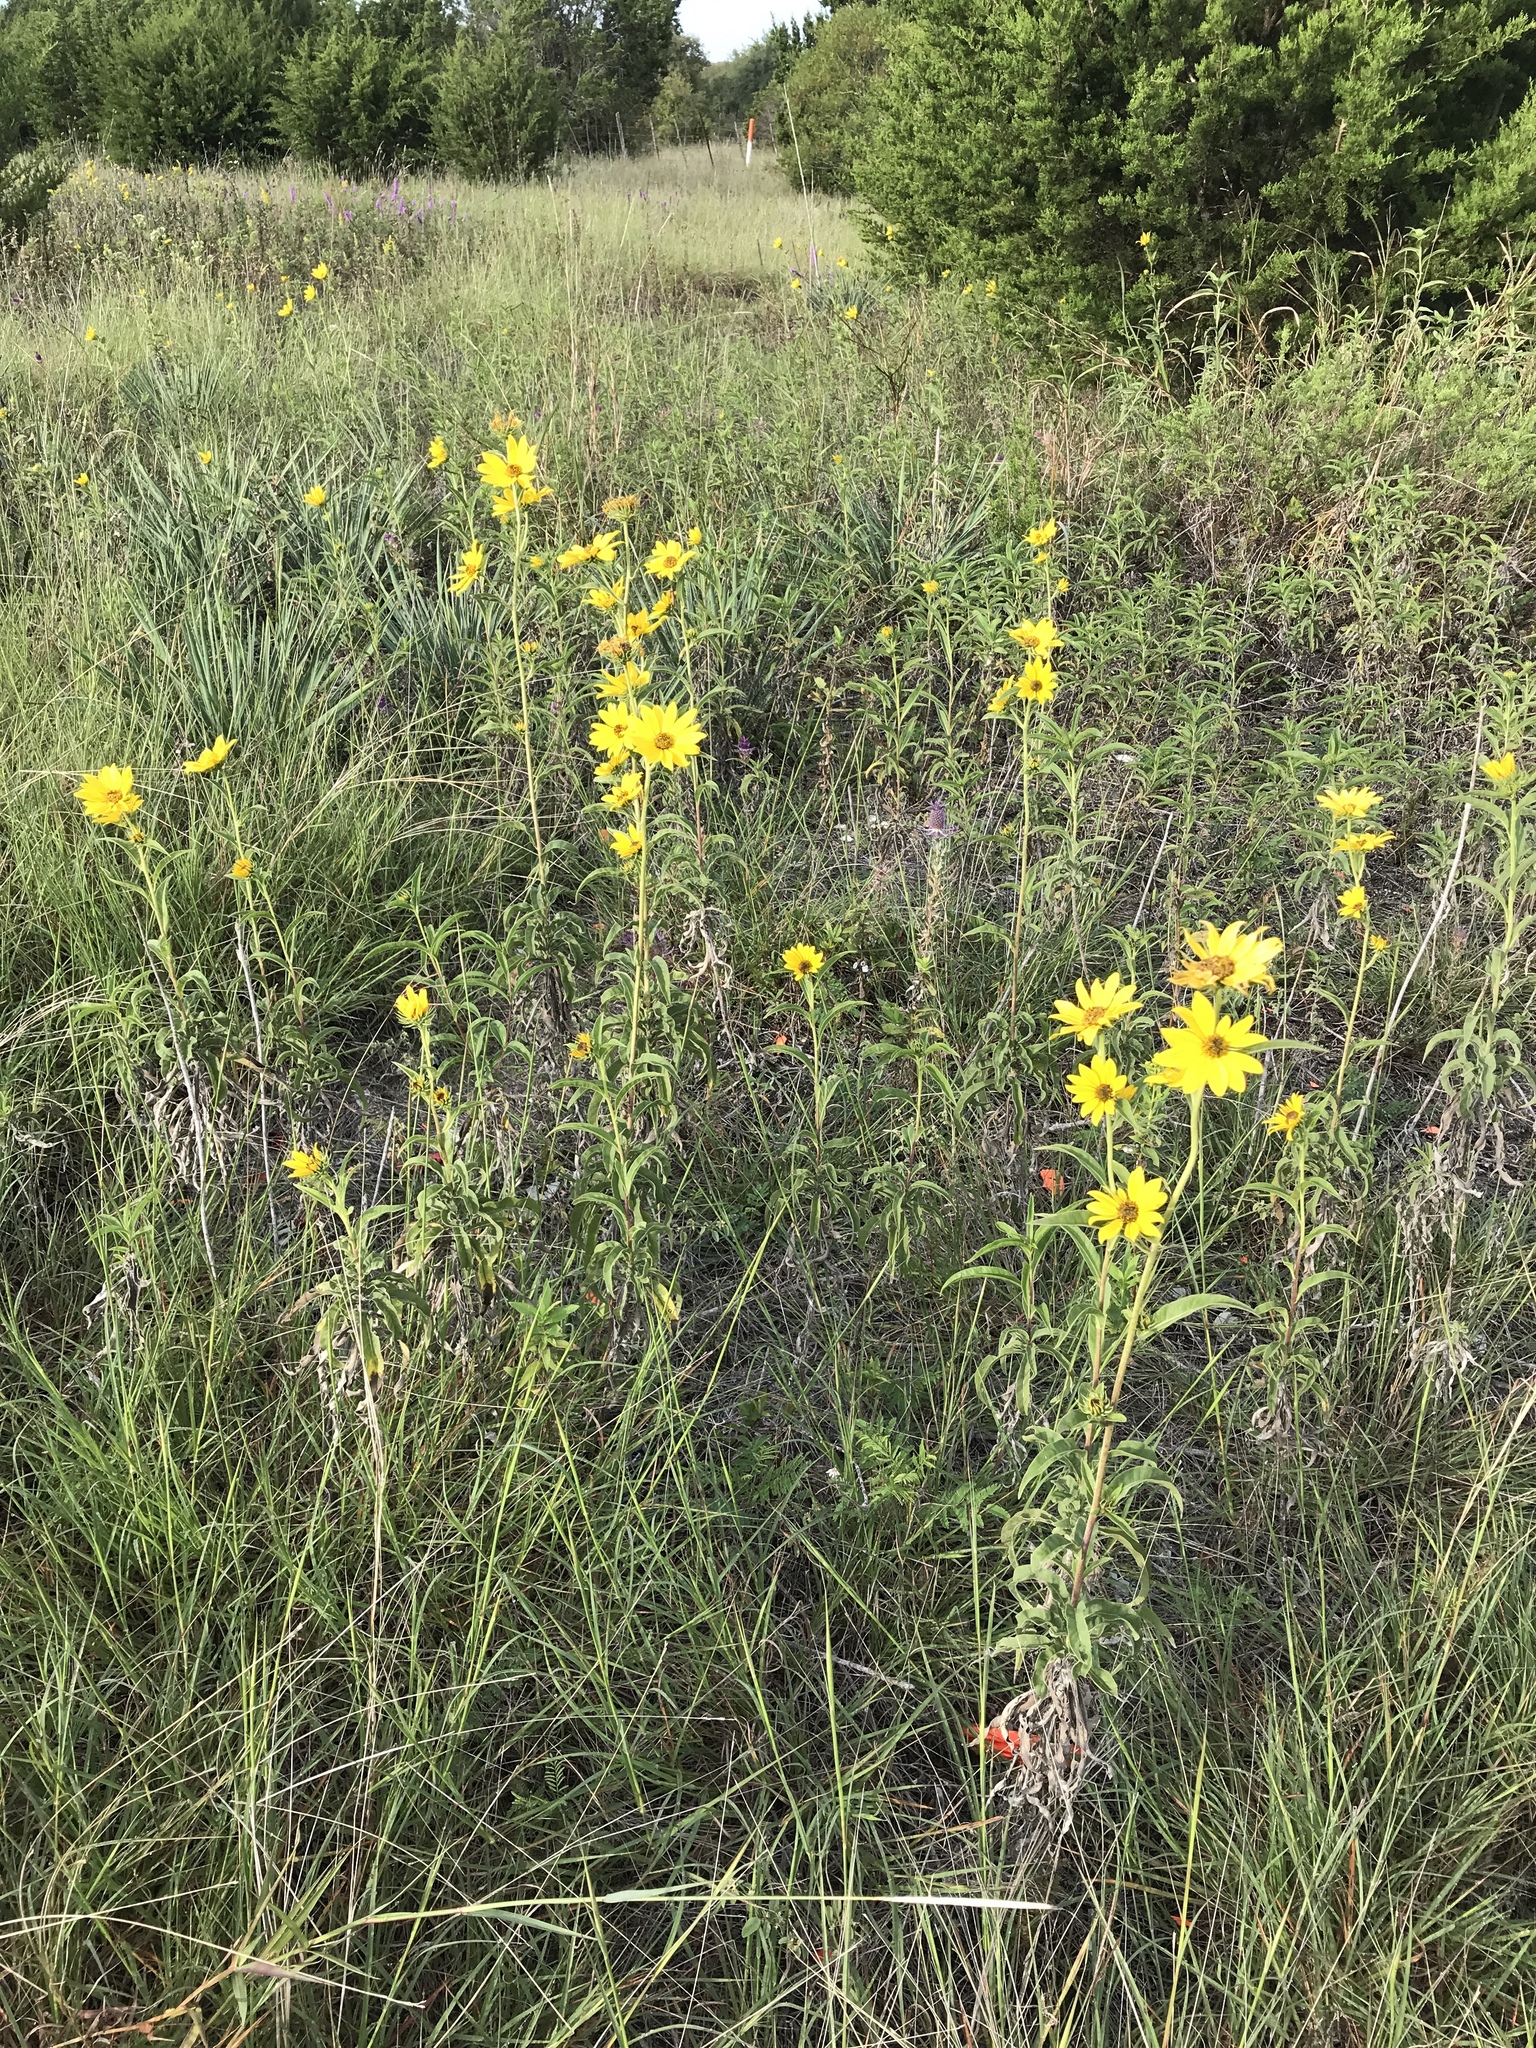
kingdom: Plantae
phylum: Tracheophyta
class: Magnoliopsida
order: Asterales
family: Asteraceae
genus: Helianthus
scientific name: Helianthus maximiliani
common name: Maximilian's sunflower
